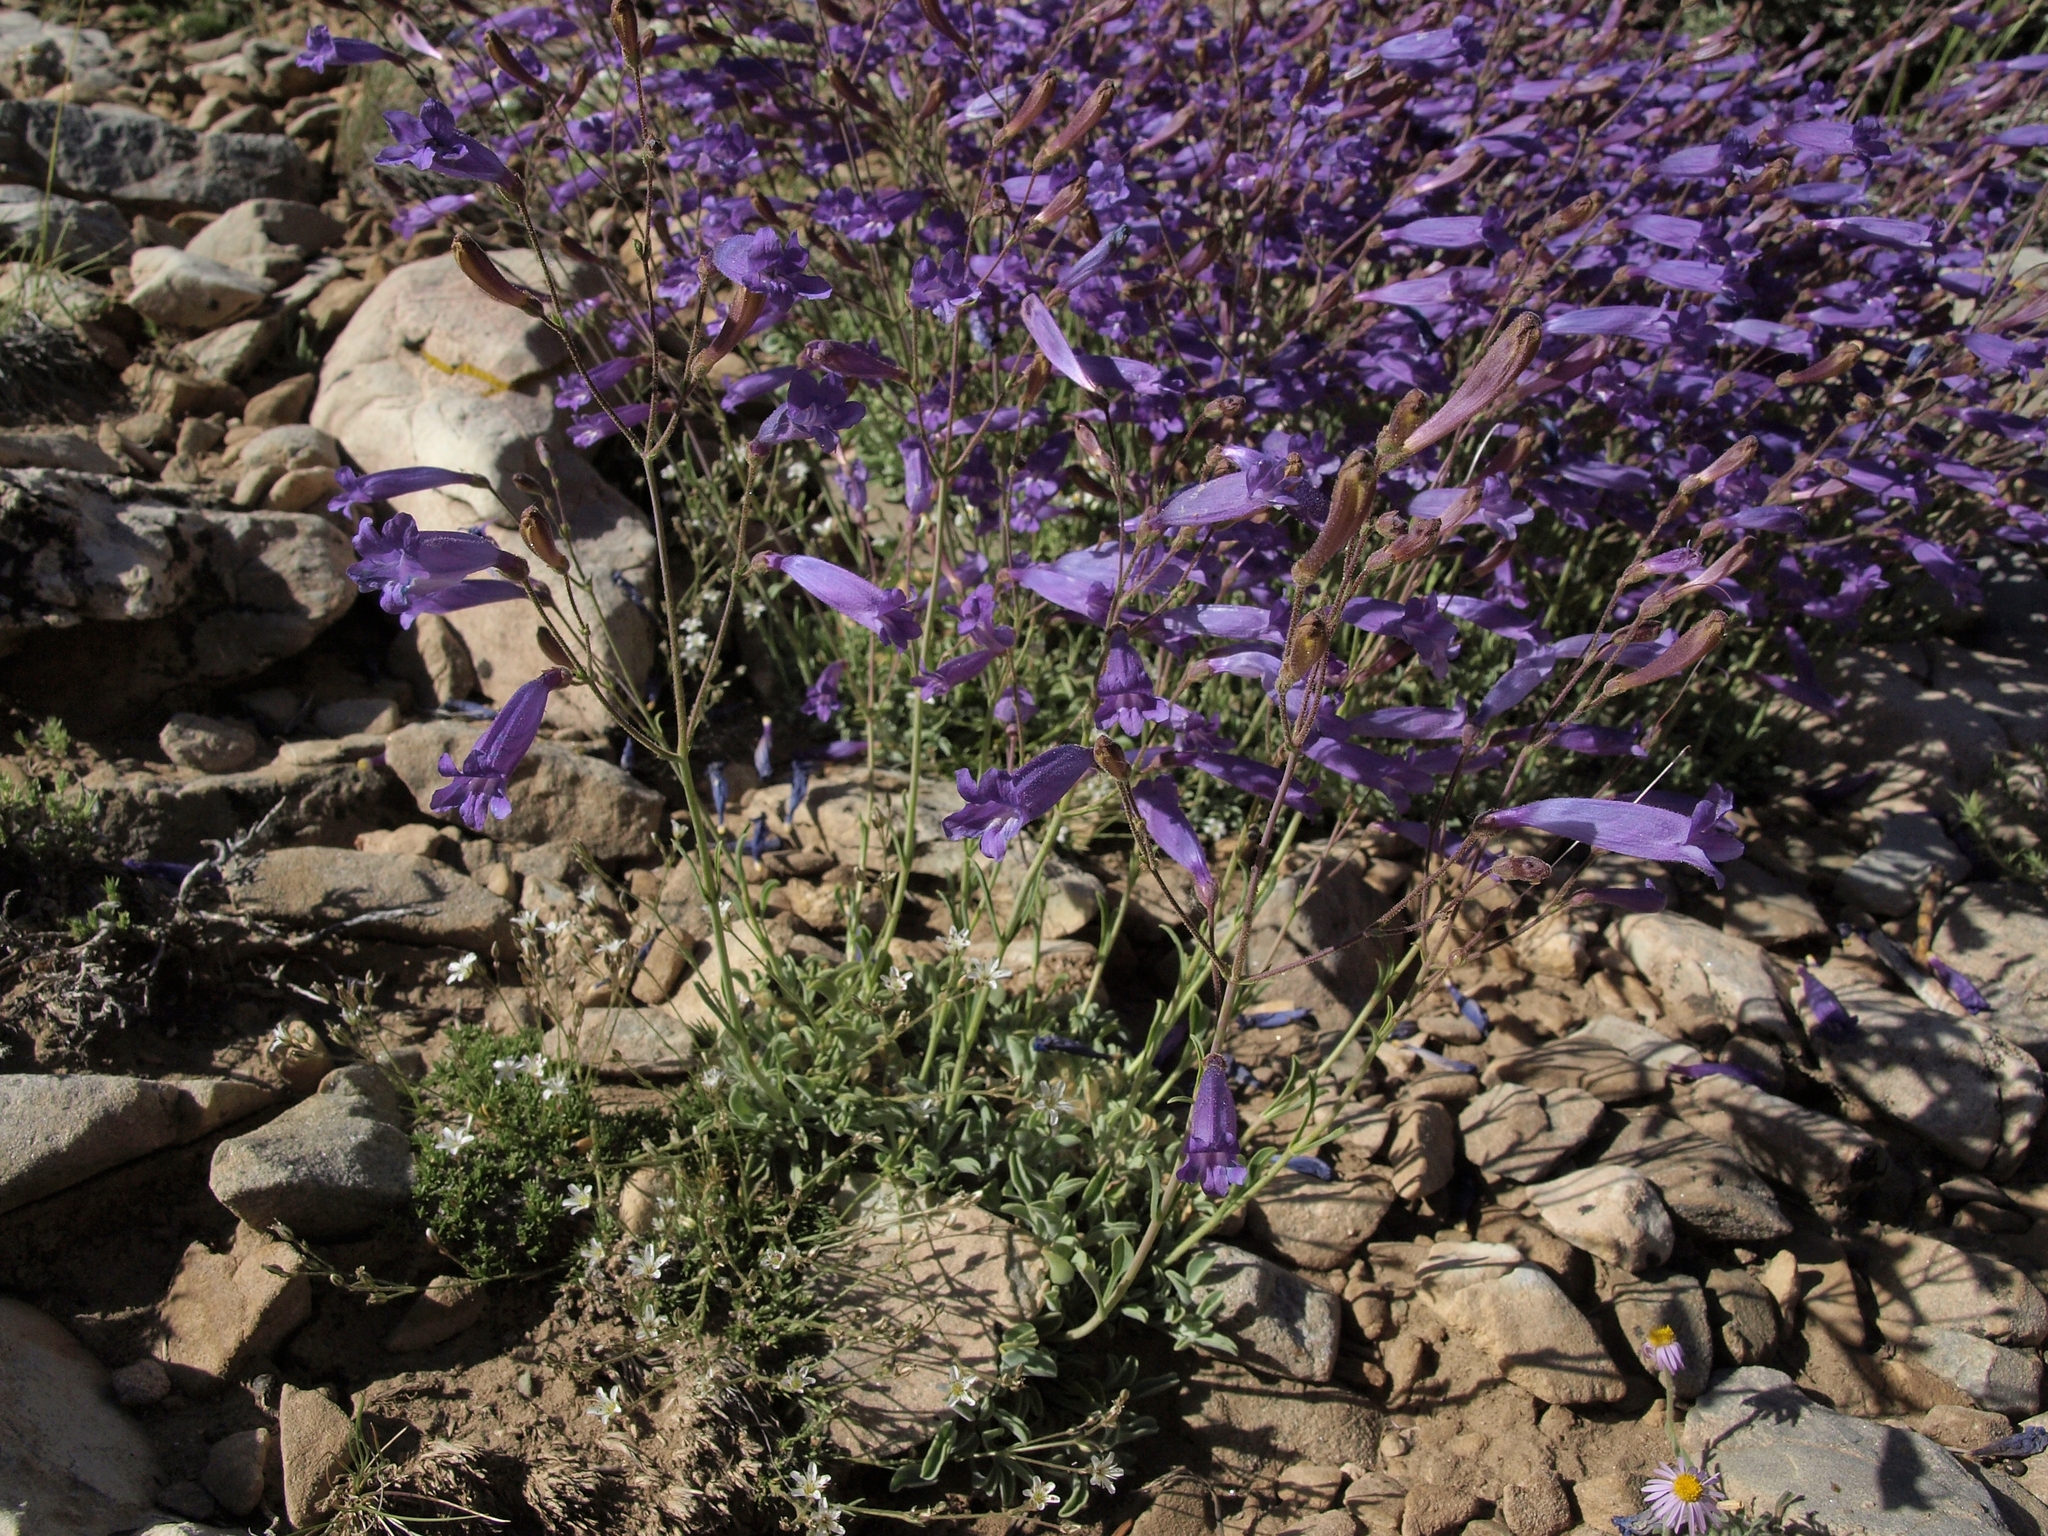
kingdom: Plantae
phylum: Tracheophyta
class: Magnoliopsida
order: Lamiales
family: Plantaginaceae
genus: Penstemon
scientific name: Penstemon scapoides
